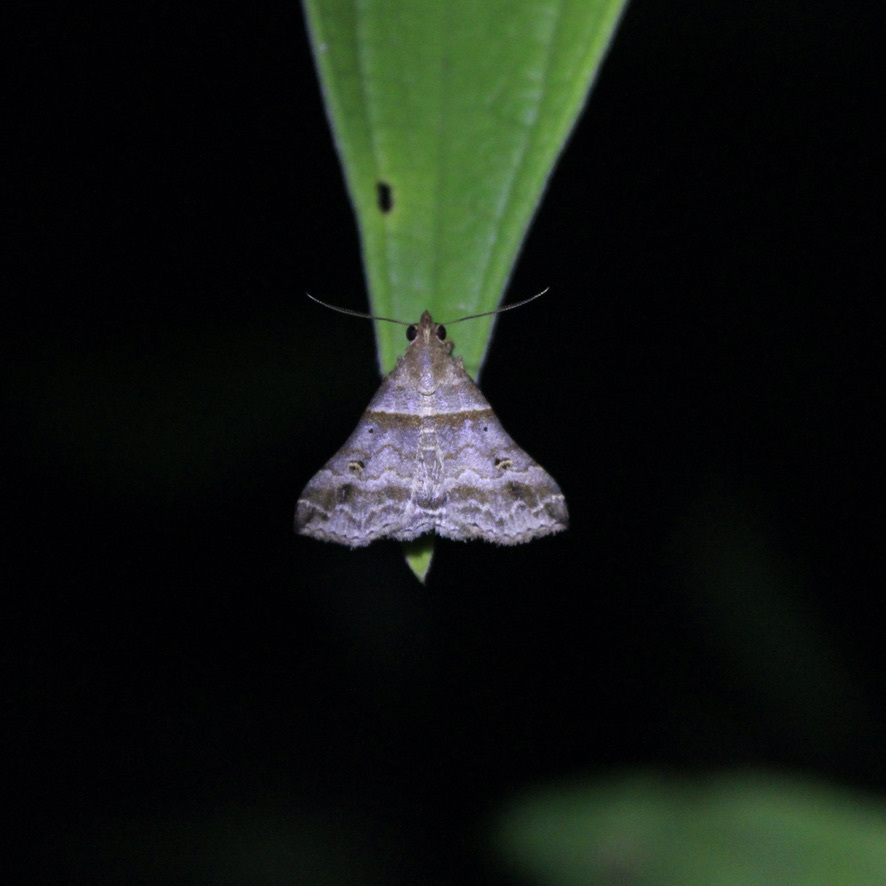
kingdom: Animalia
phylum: Arthropoda
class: Insecta
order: Lepidoptera
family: Erebidae
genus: Heterogramma
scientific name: Heterogramma circumflexalis
